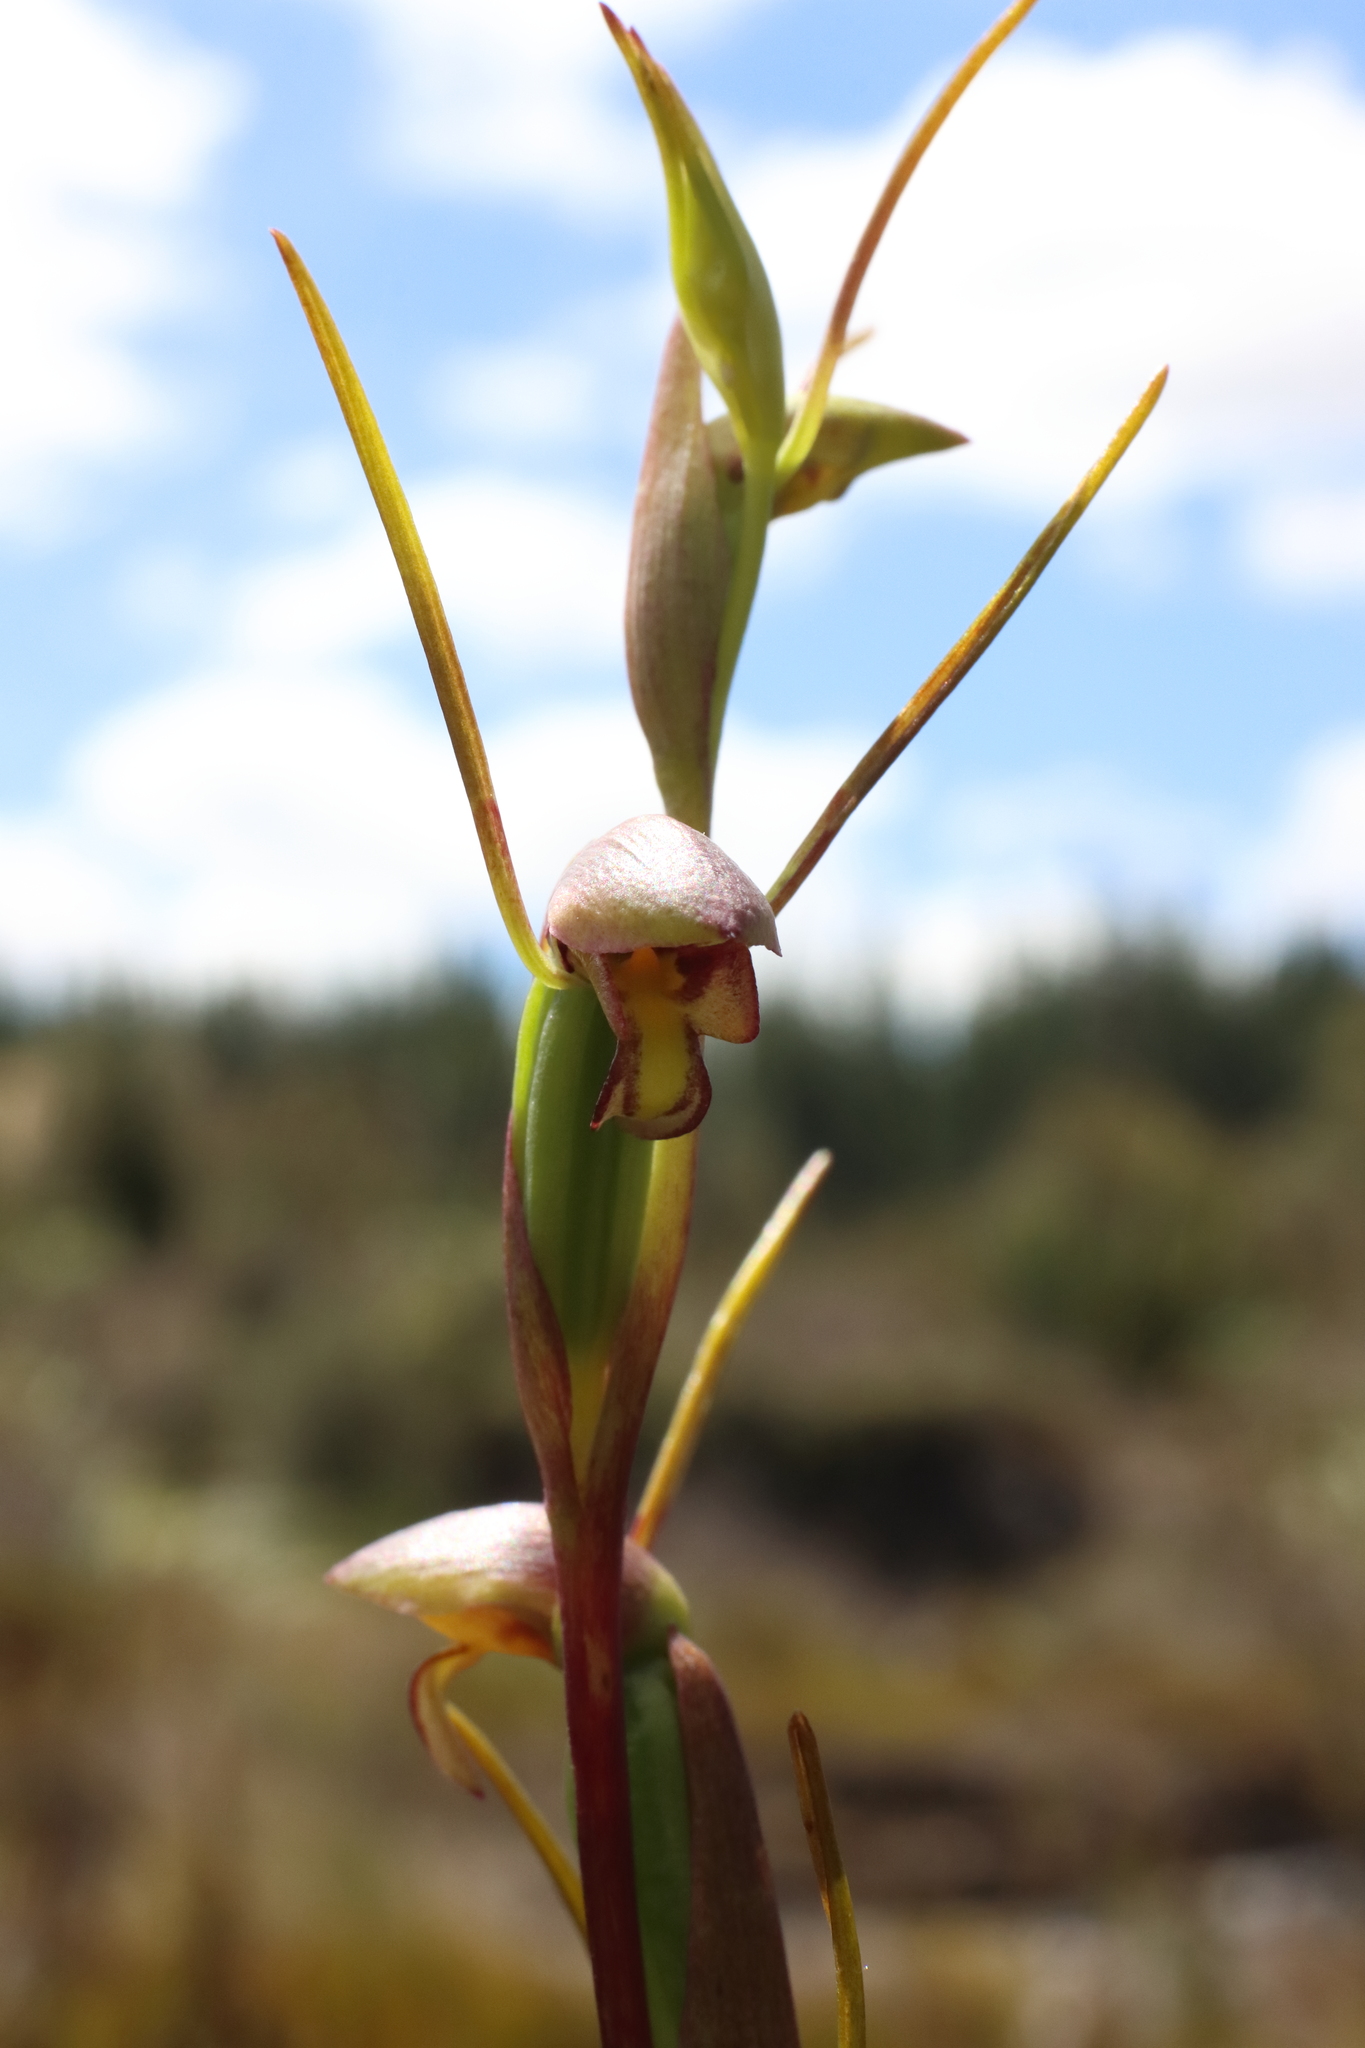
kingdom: Plantae
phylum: Tracheophyta
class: Liliopsida
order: Asparagales
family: Orchidaceae
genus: Orthoceras
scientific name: Orthoceras novae-zeelandiae
